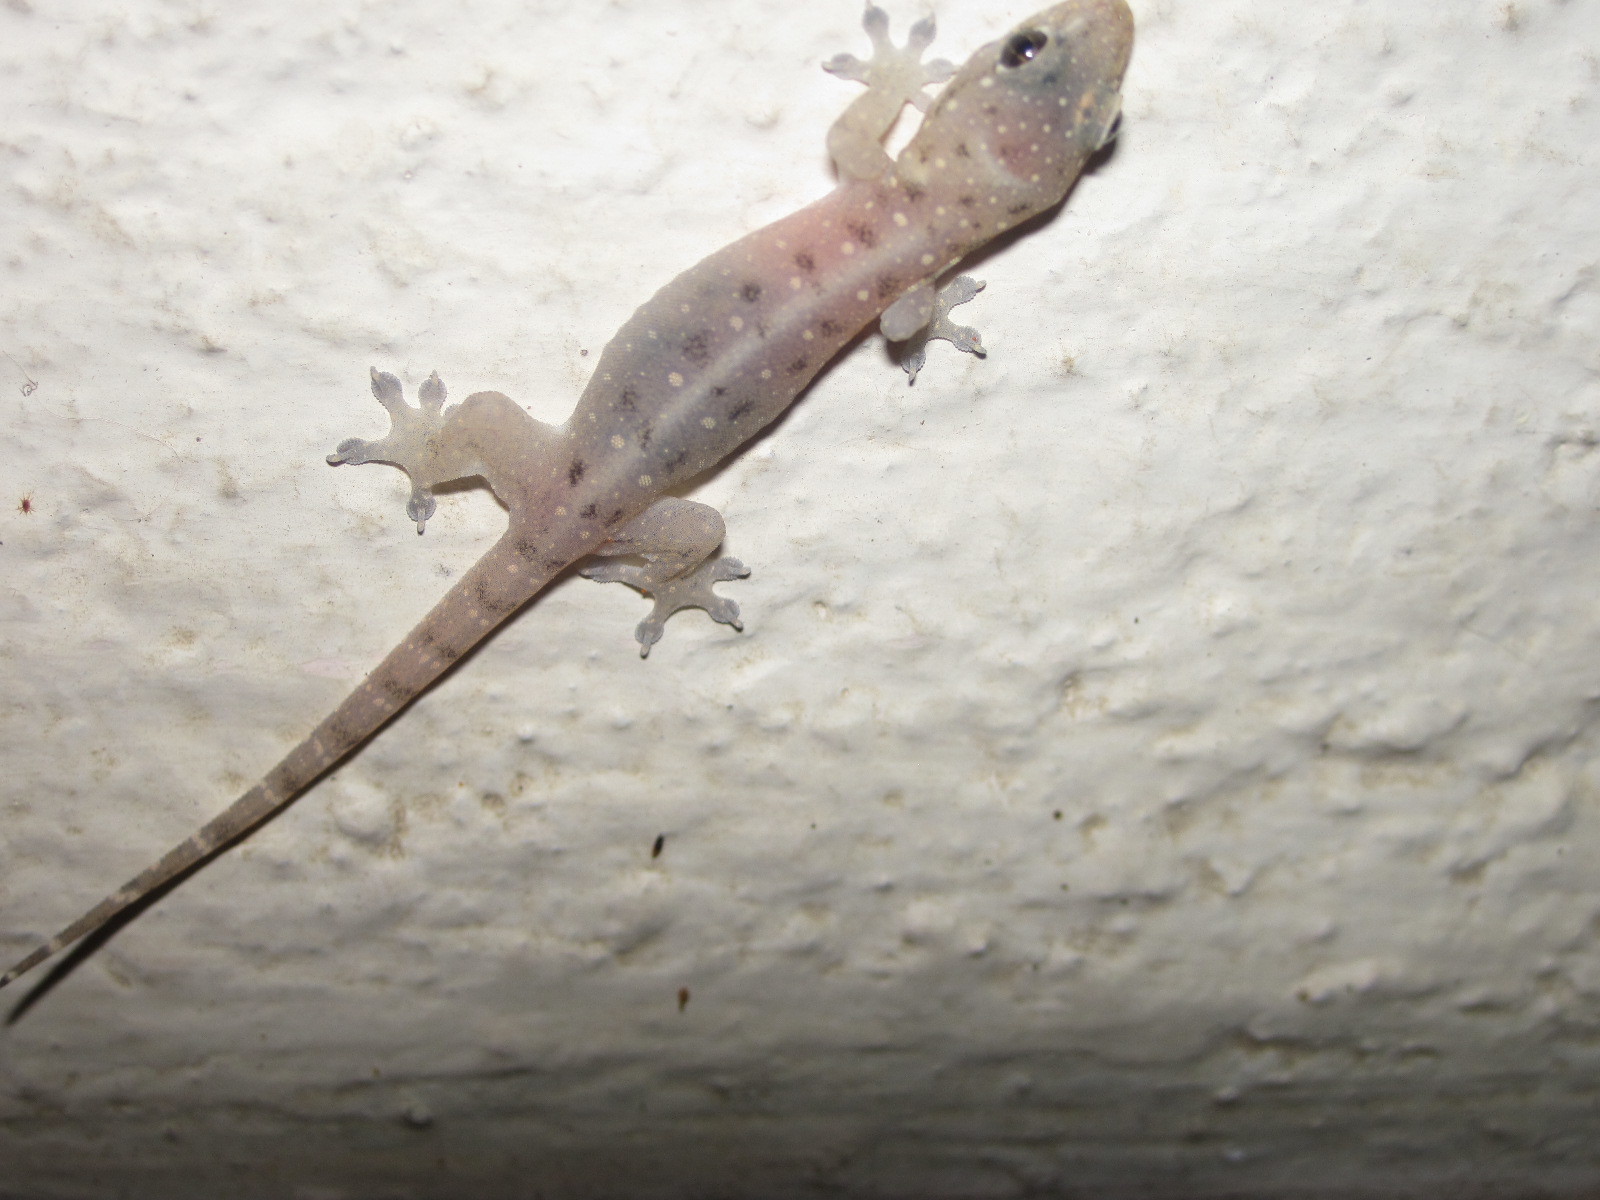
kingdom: Animalia
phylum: Chordata
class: Squamata
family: Gekkonidae
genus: Gehyra
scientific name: Gehyra mutilata
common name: Stump-toed gecko
